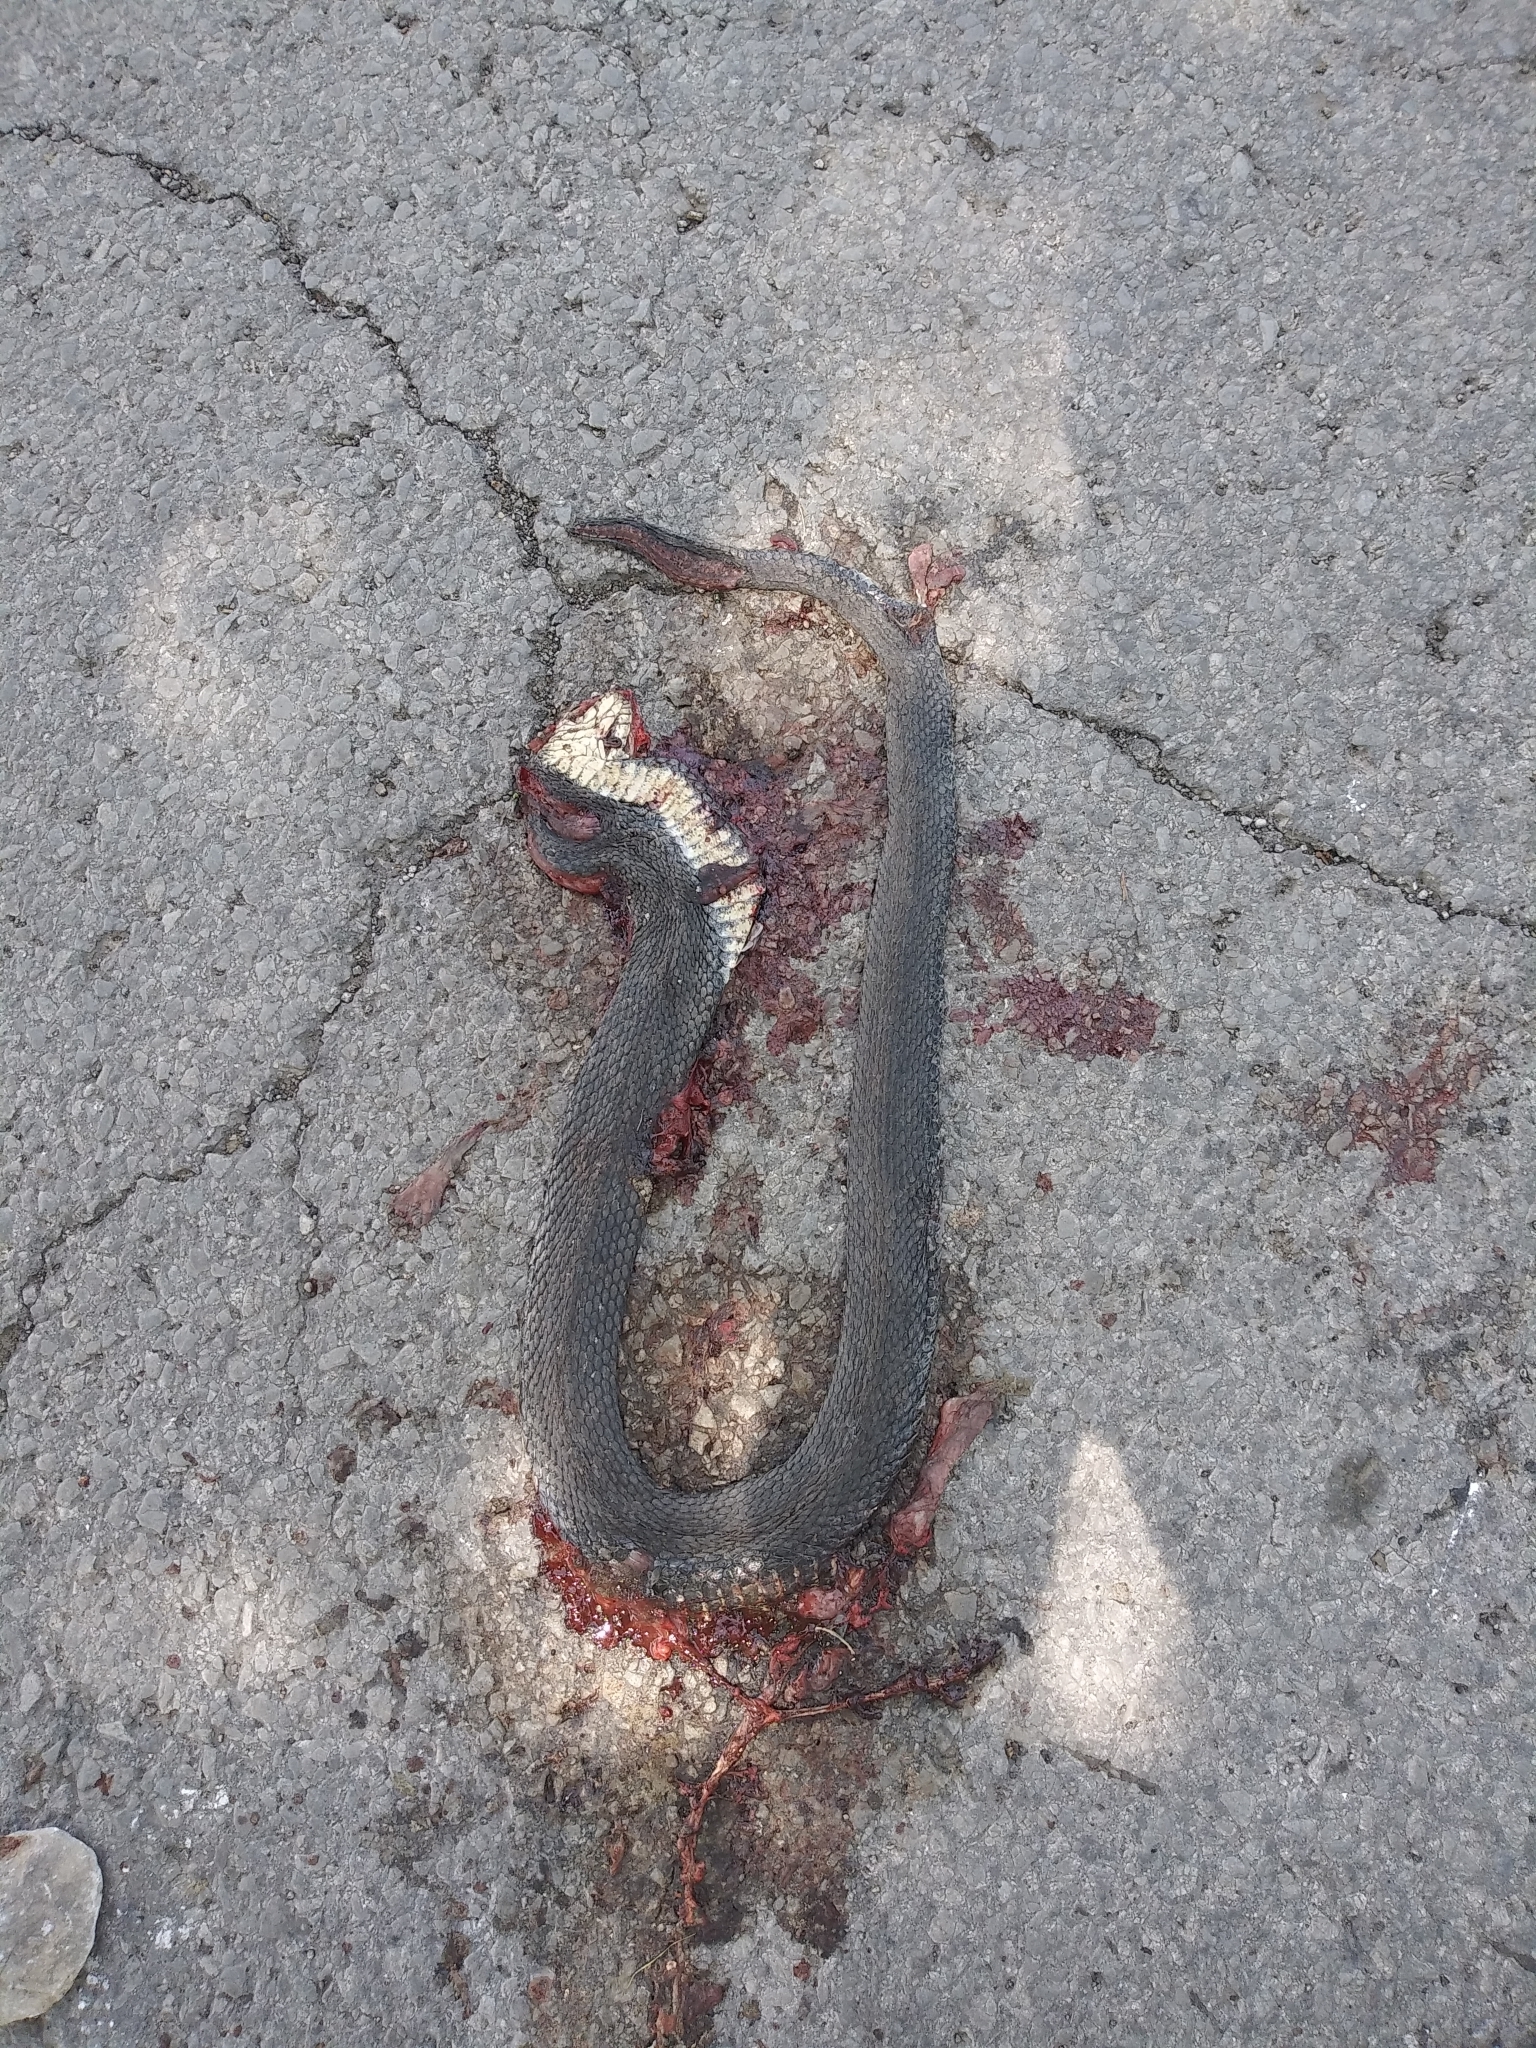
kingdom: Animalia
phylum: Chordata
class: Squamata
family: Colubridae
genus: Nerodia
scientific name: Nerodia sipedon
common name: Northern water snake
